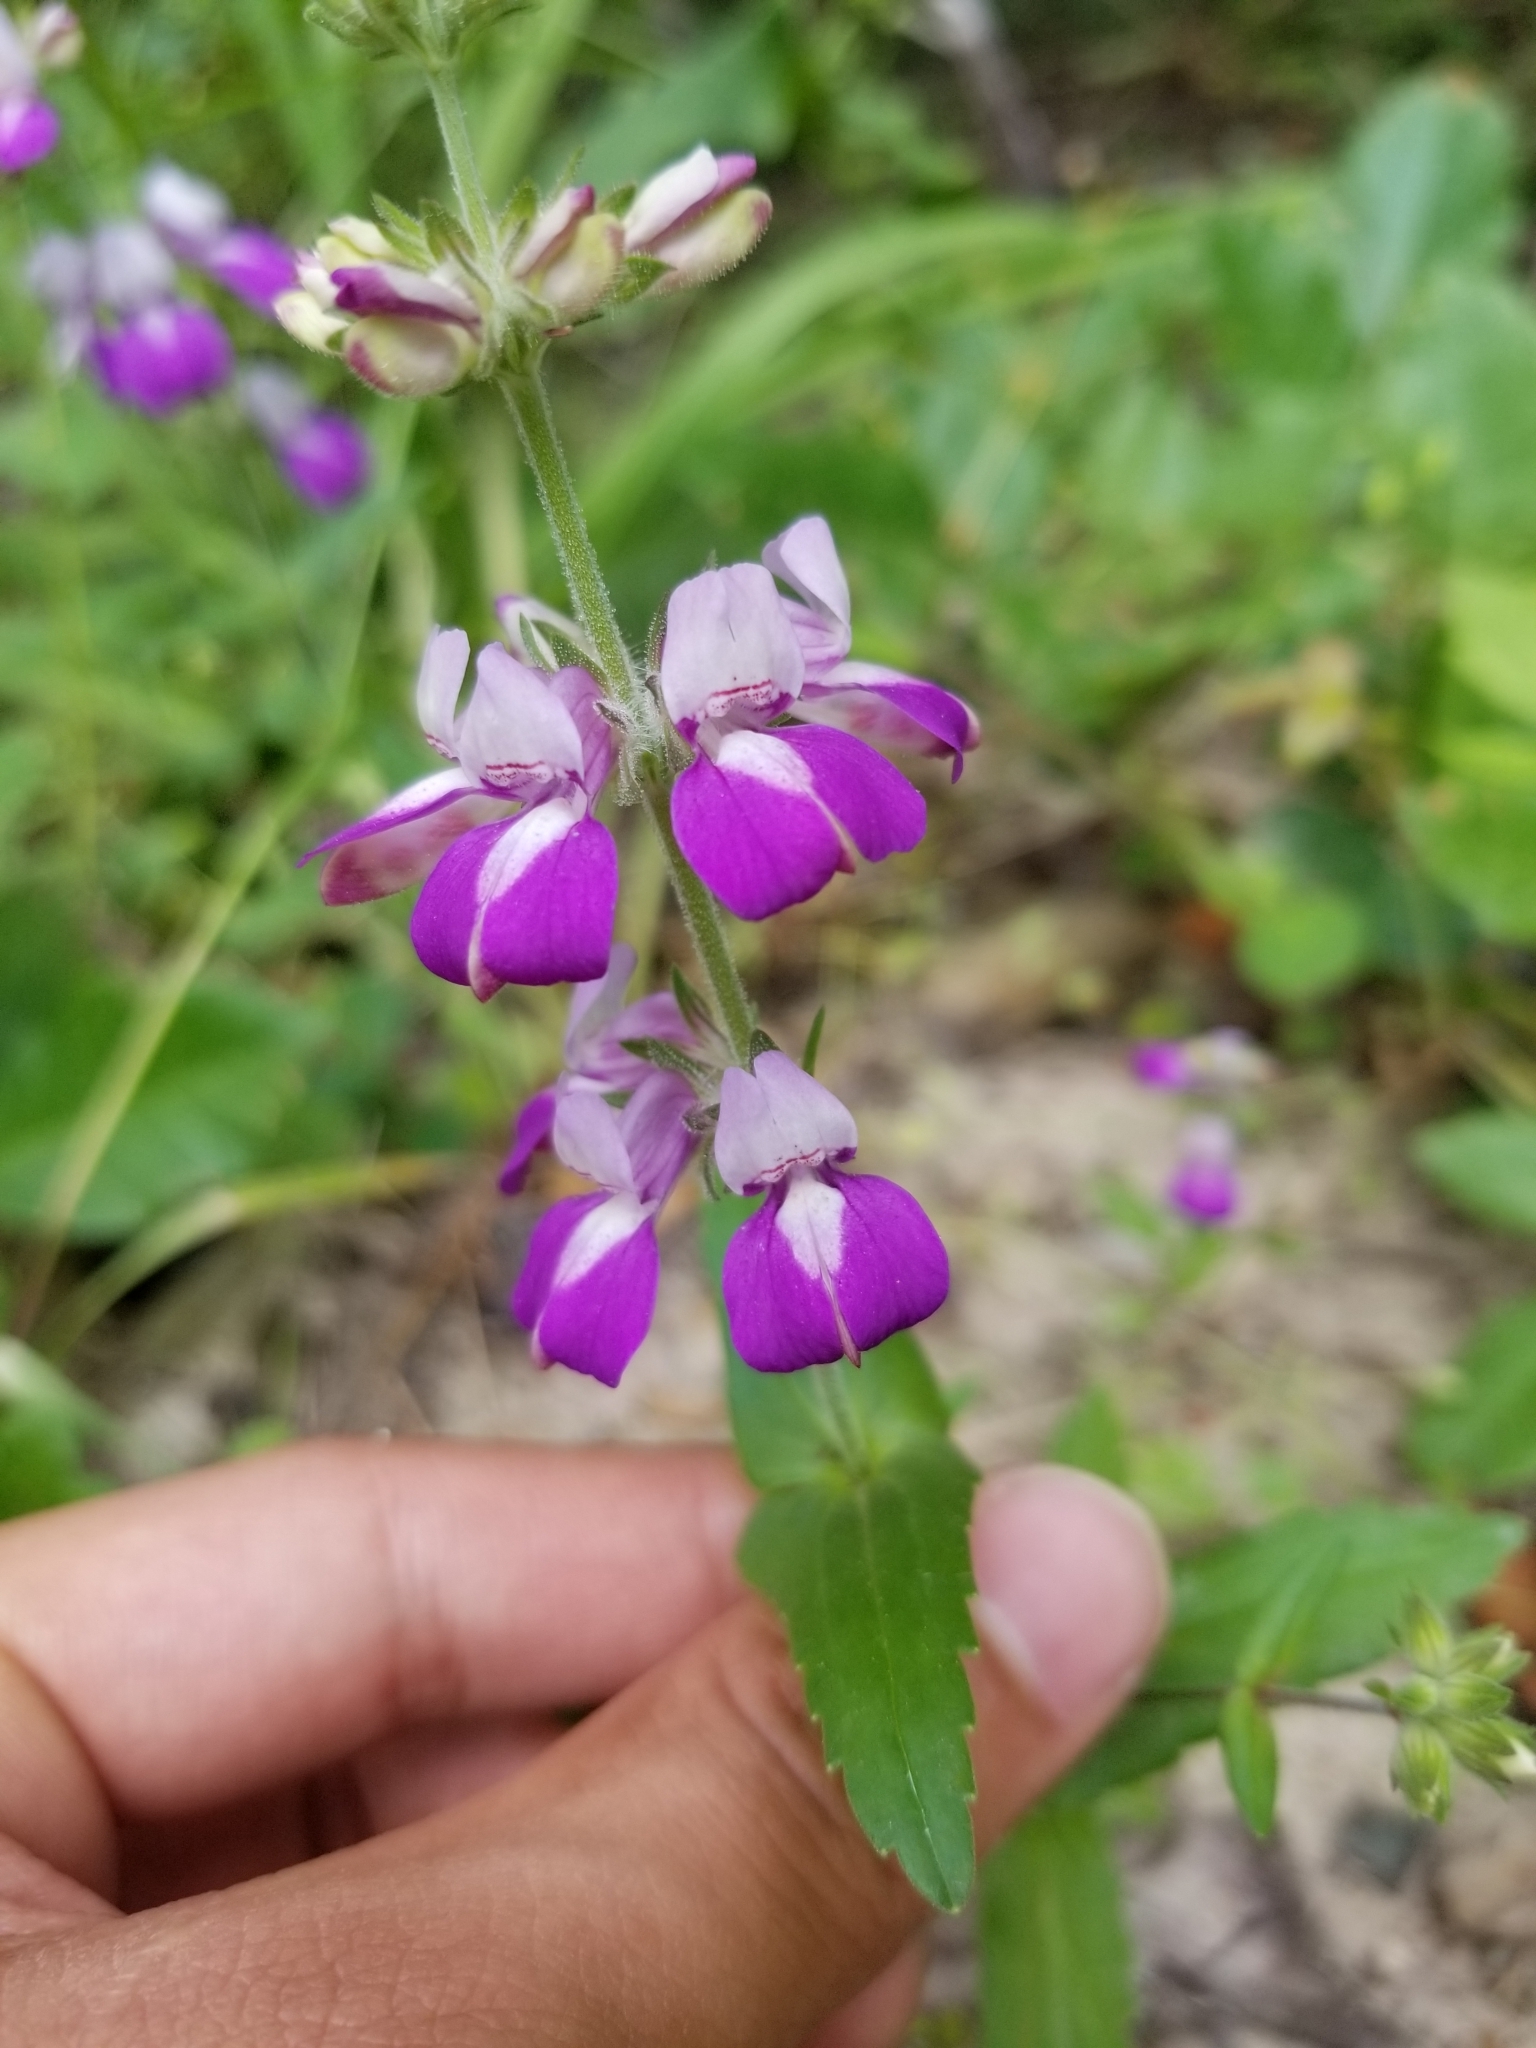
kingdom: Plantae
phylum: Tracheophyta
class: Magnoliopsida
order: Lamiales
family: Plantaginaceae
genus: Collinsia
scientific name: Collinsia heterophylla
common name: Chinese-houses
